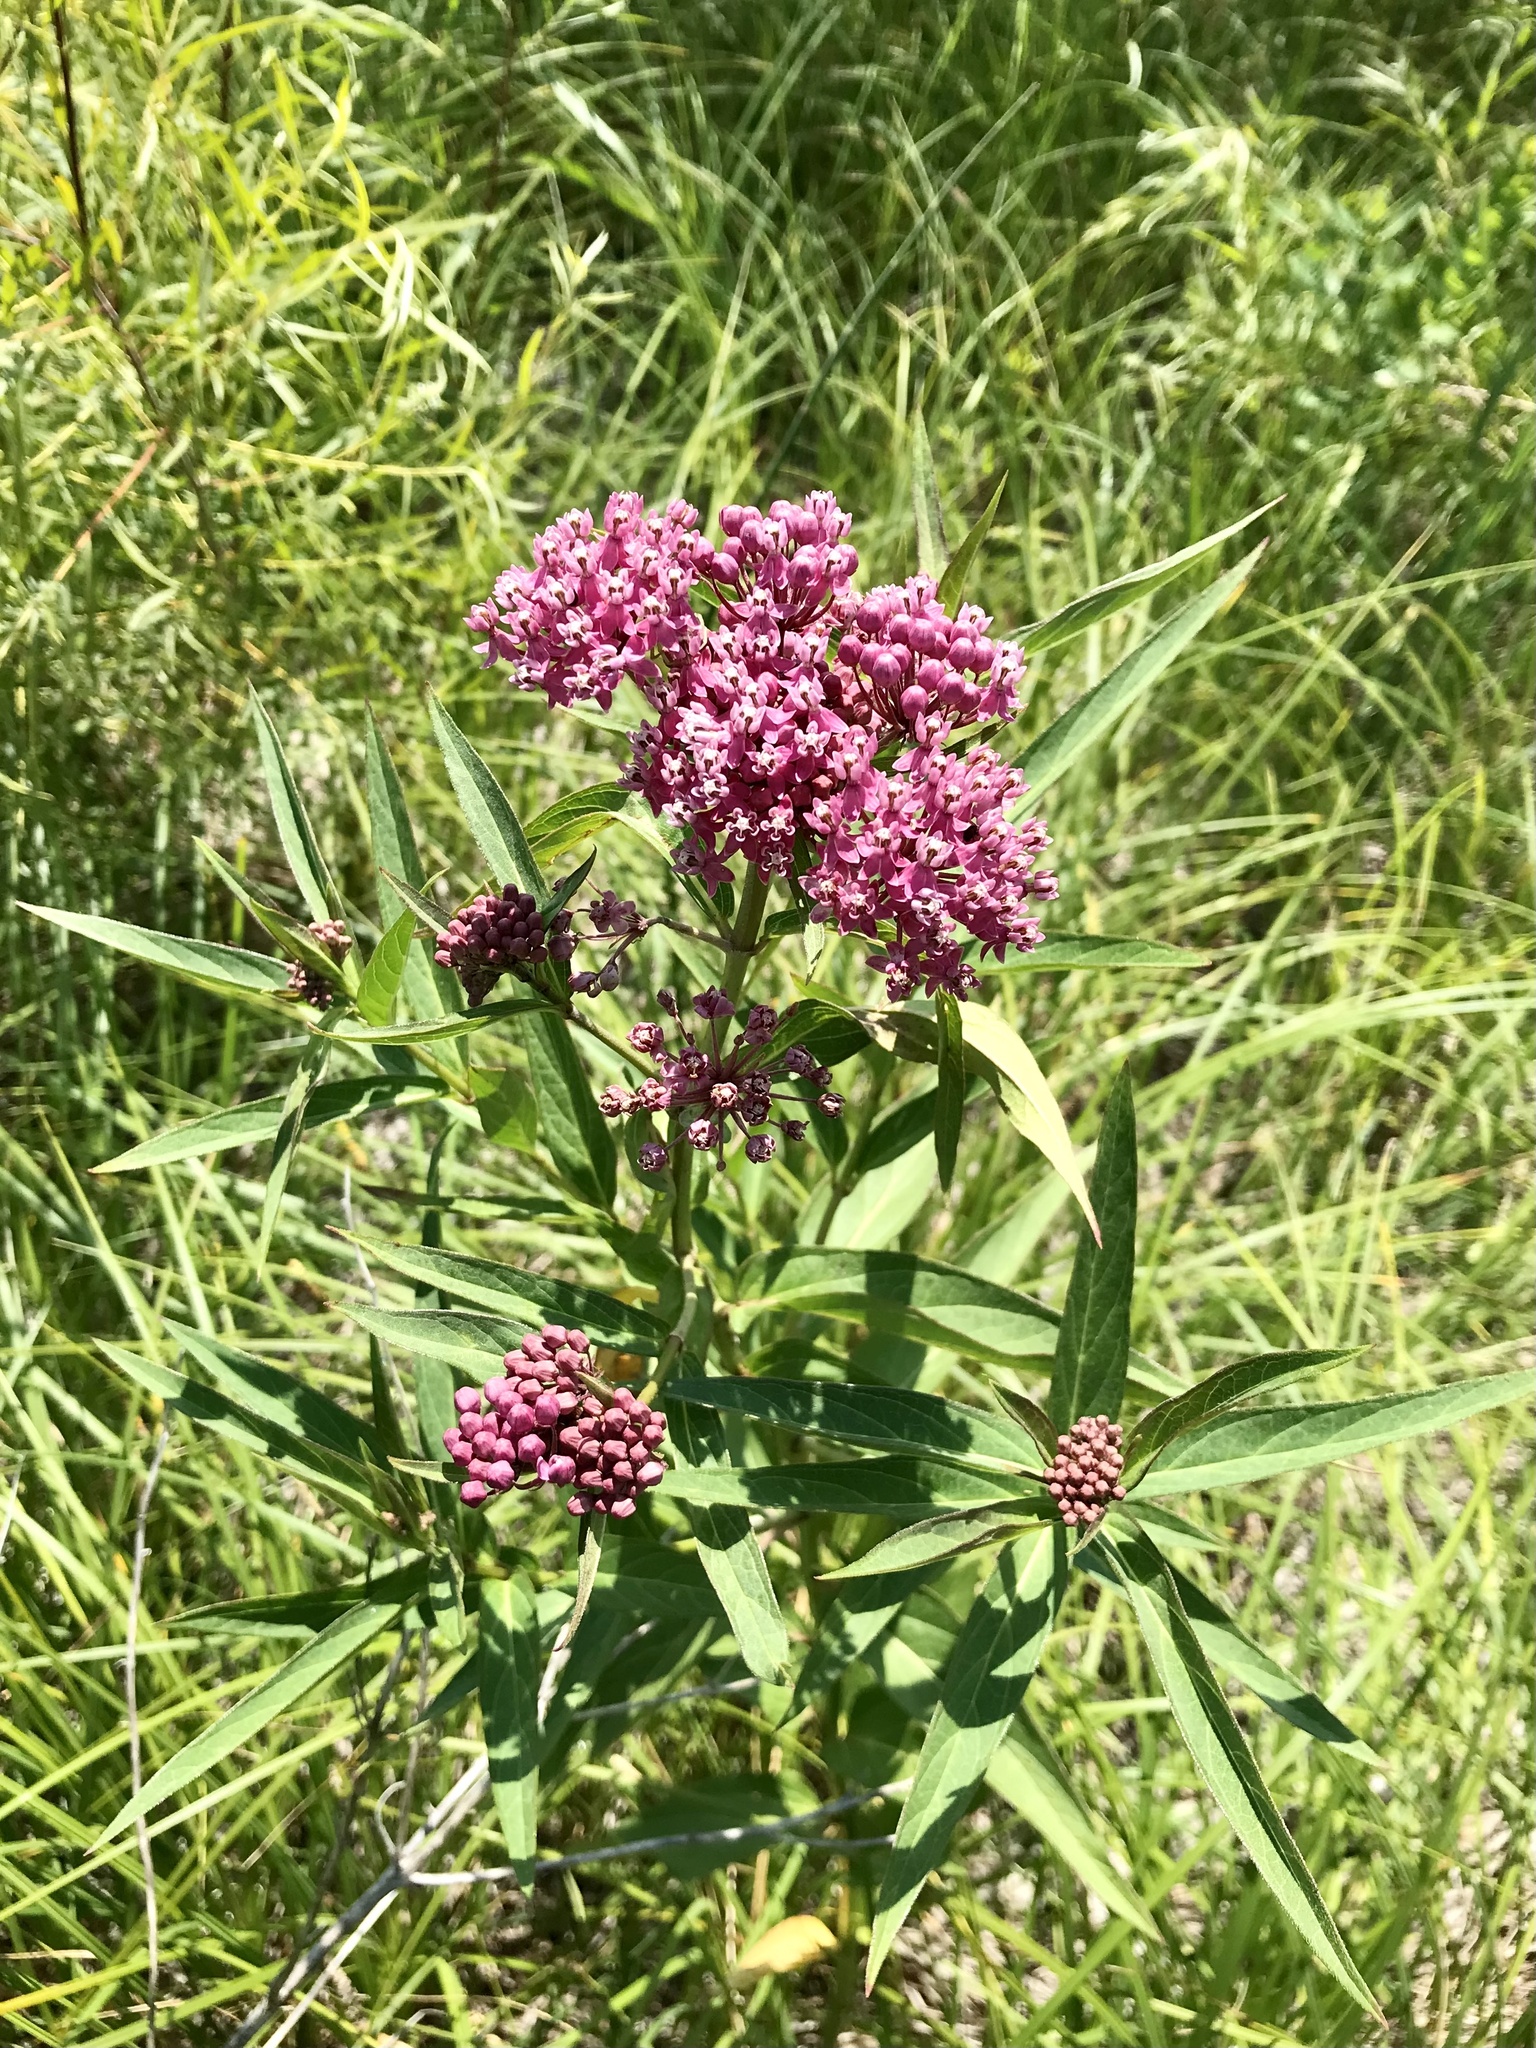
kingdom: Plantae
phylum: Tracheophyta
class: Magnoliopsida
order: Gentianales
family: Apocynaceae
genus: Asclepias
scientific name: Asclepias incarnata
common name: Swamp milkweed
